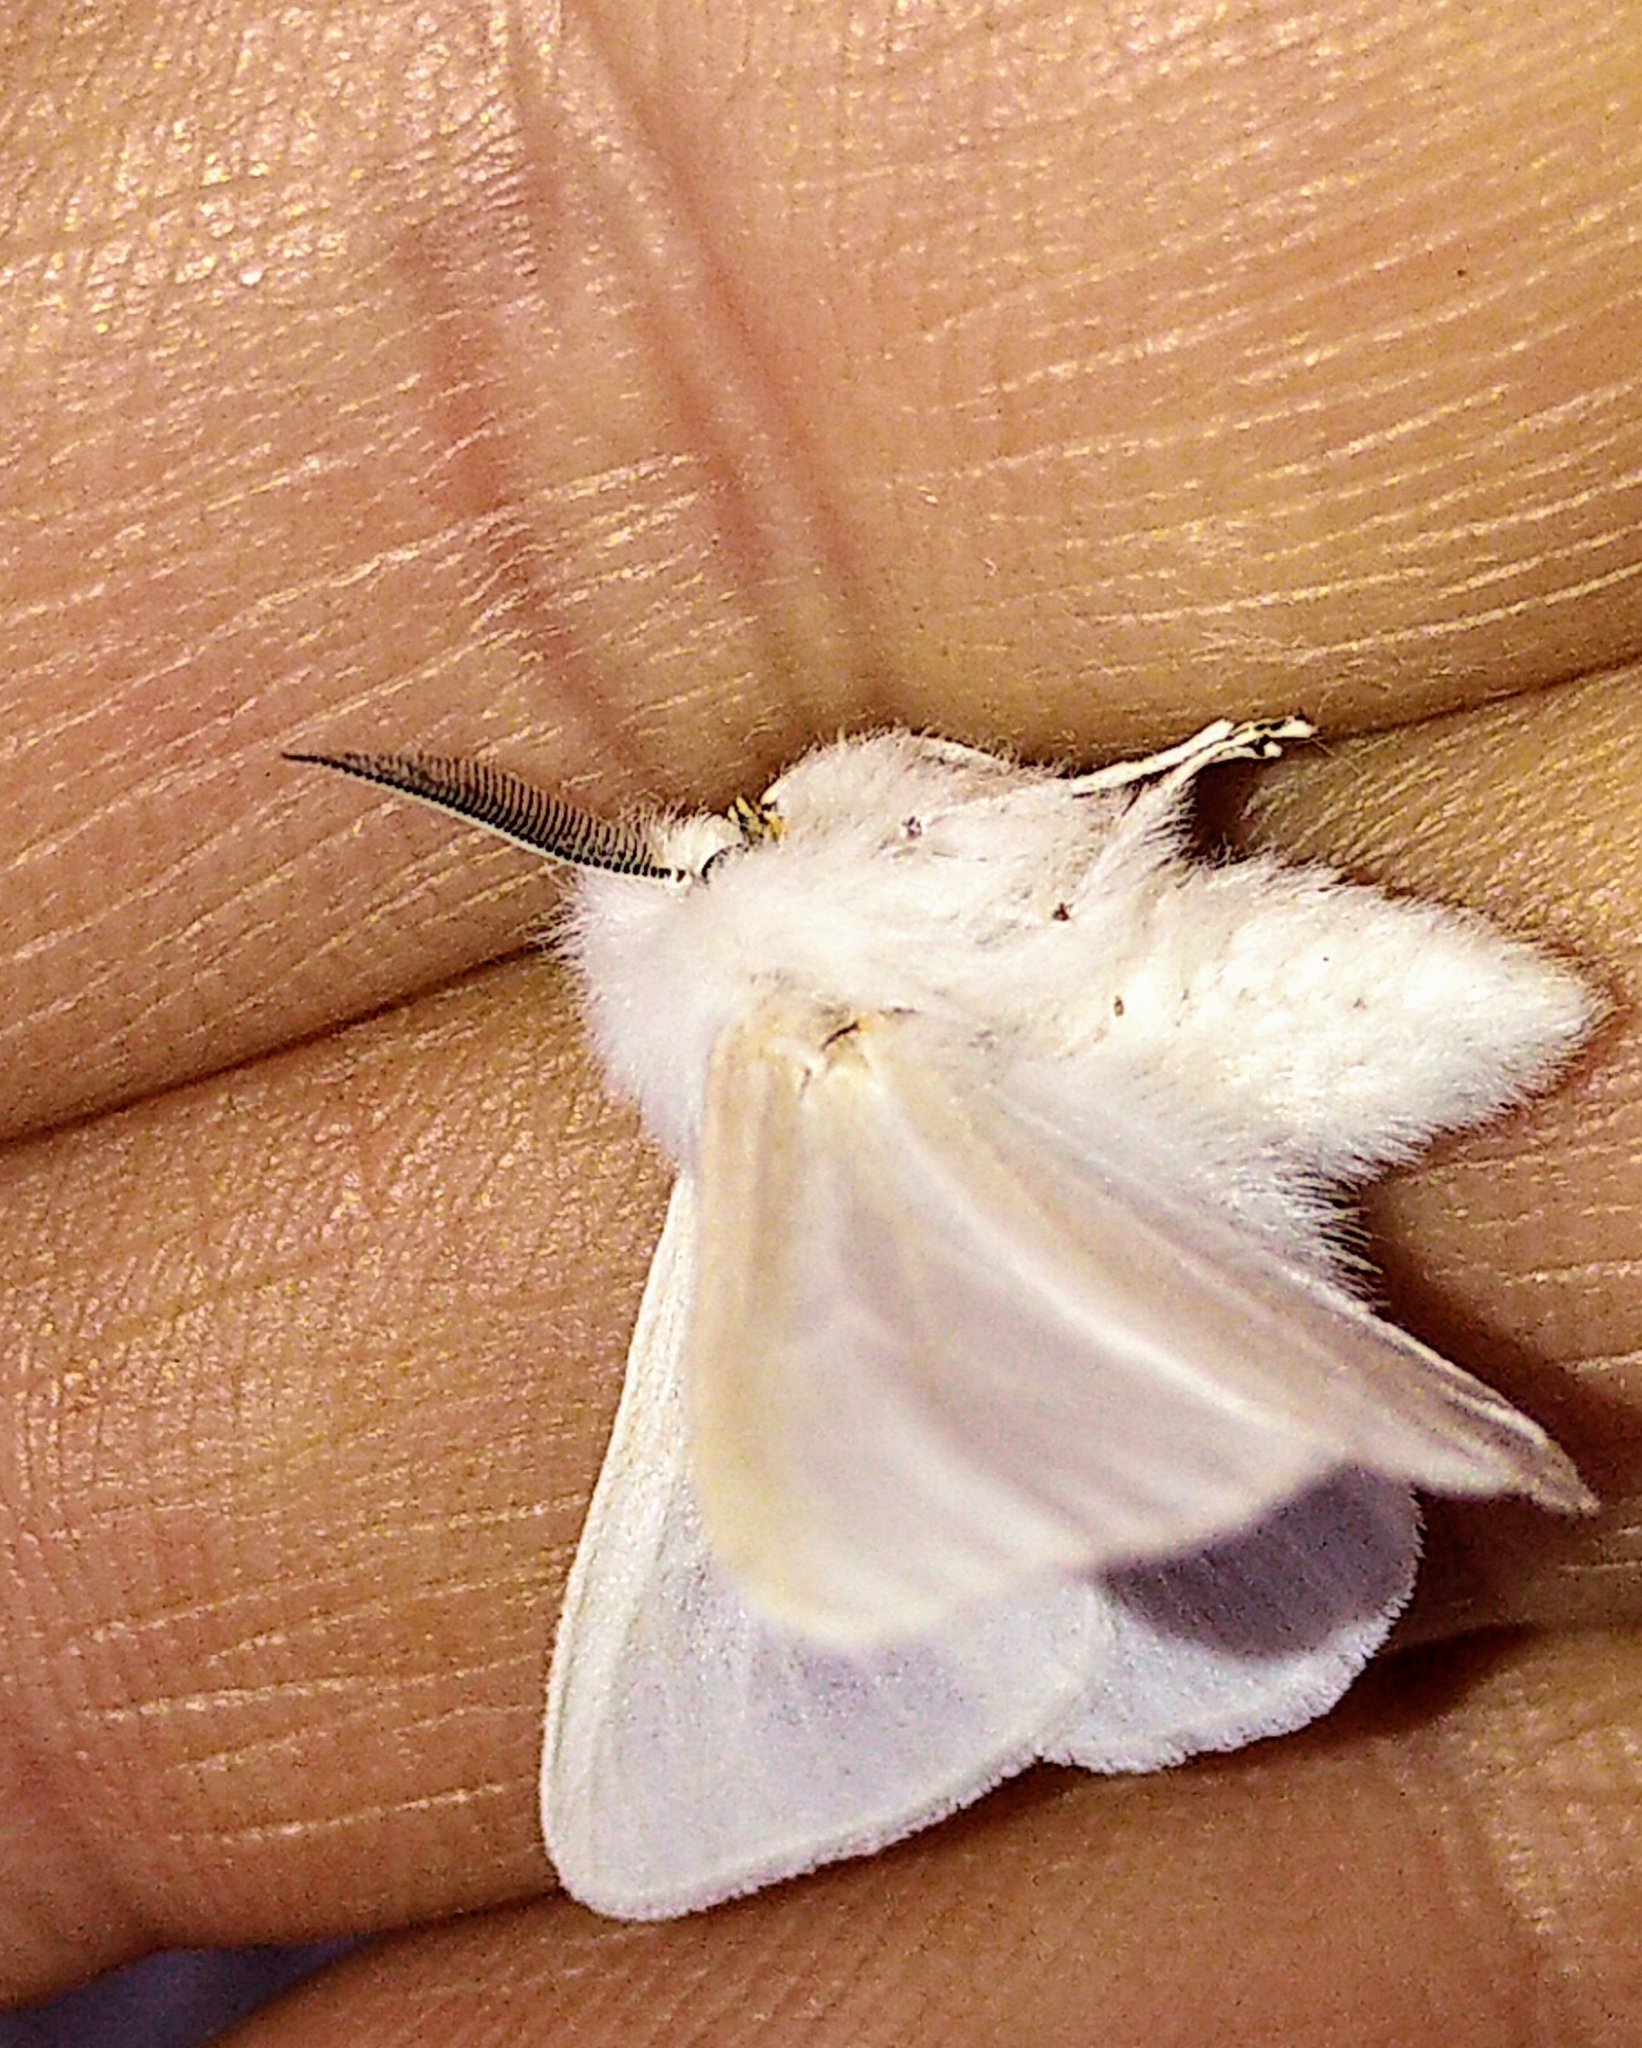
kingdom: Animalia
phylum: Arthropoda
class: Insecta
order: Lepidoptera
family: Erebidae
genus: Spilosoma
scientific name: Spilosoma congrua
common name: Agreeable tiger moth
